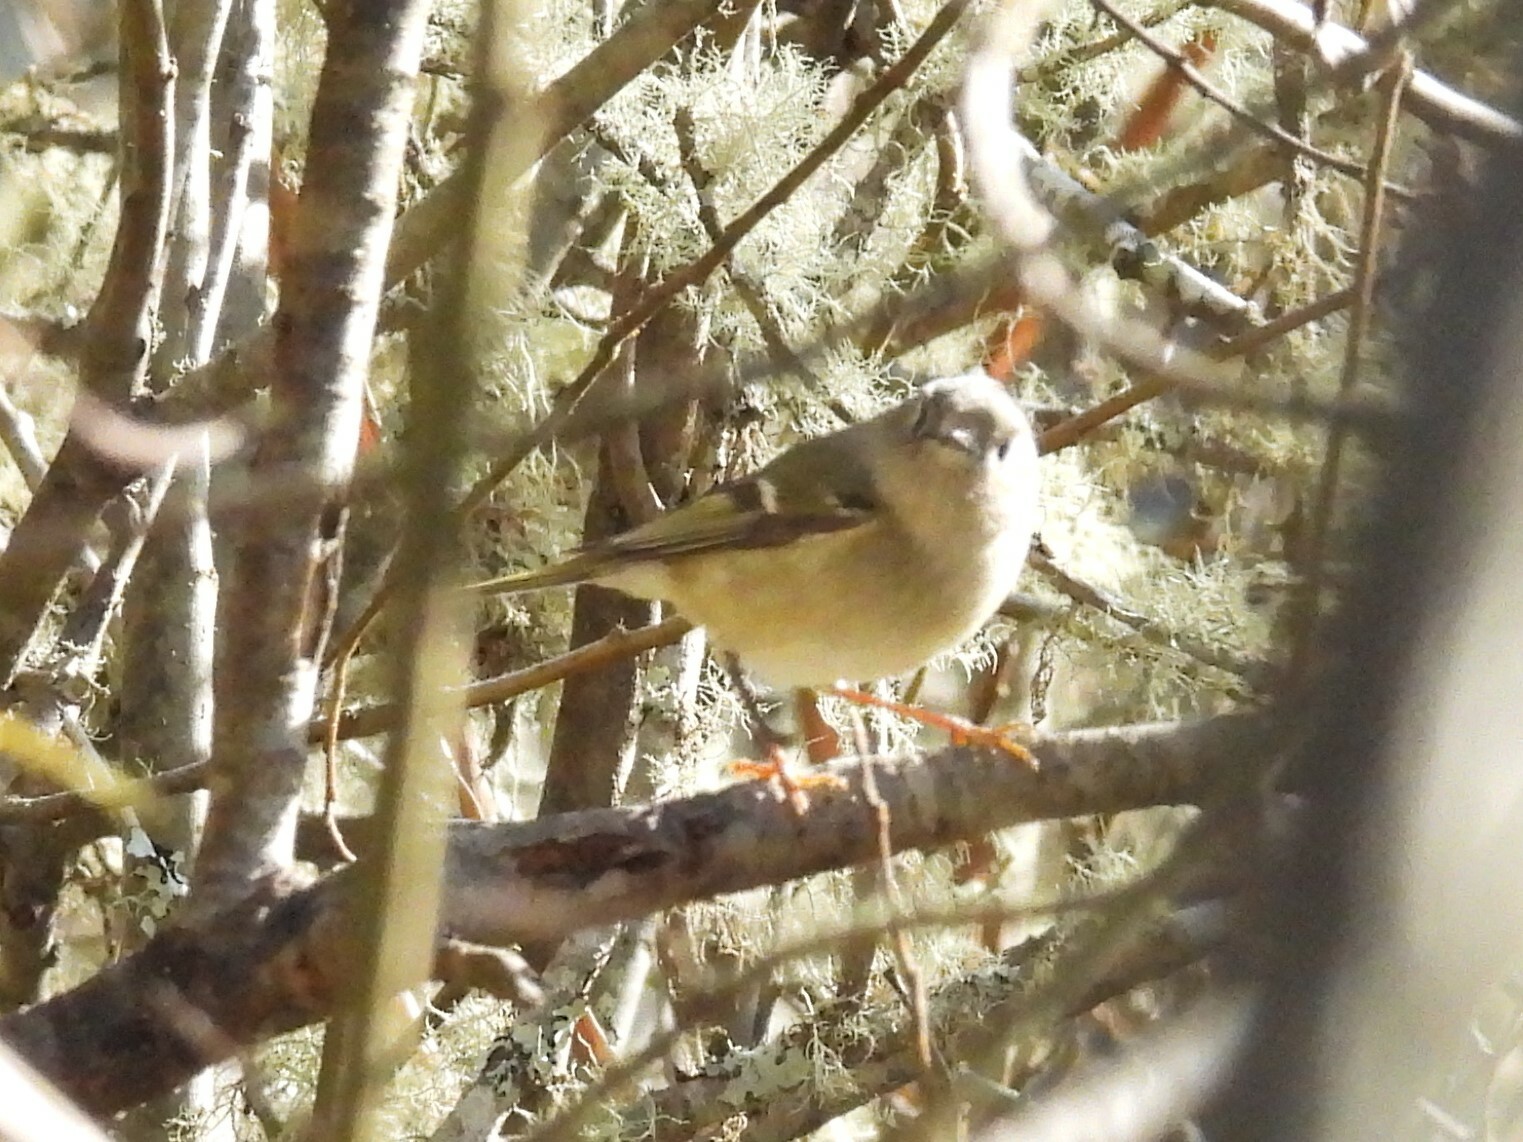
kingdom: Animalia
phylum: Chordata
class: Aves
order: Passeriformes
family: Regulidae
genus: Regulus
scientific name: Regulus calendula
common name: Ruby-crowned kinglet
